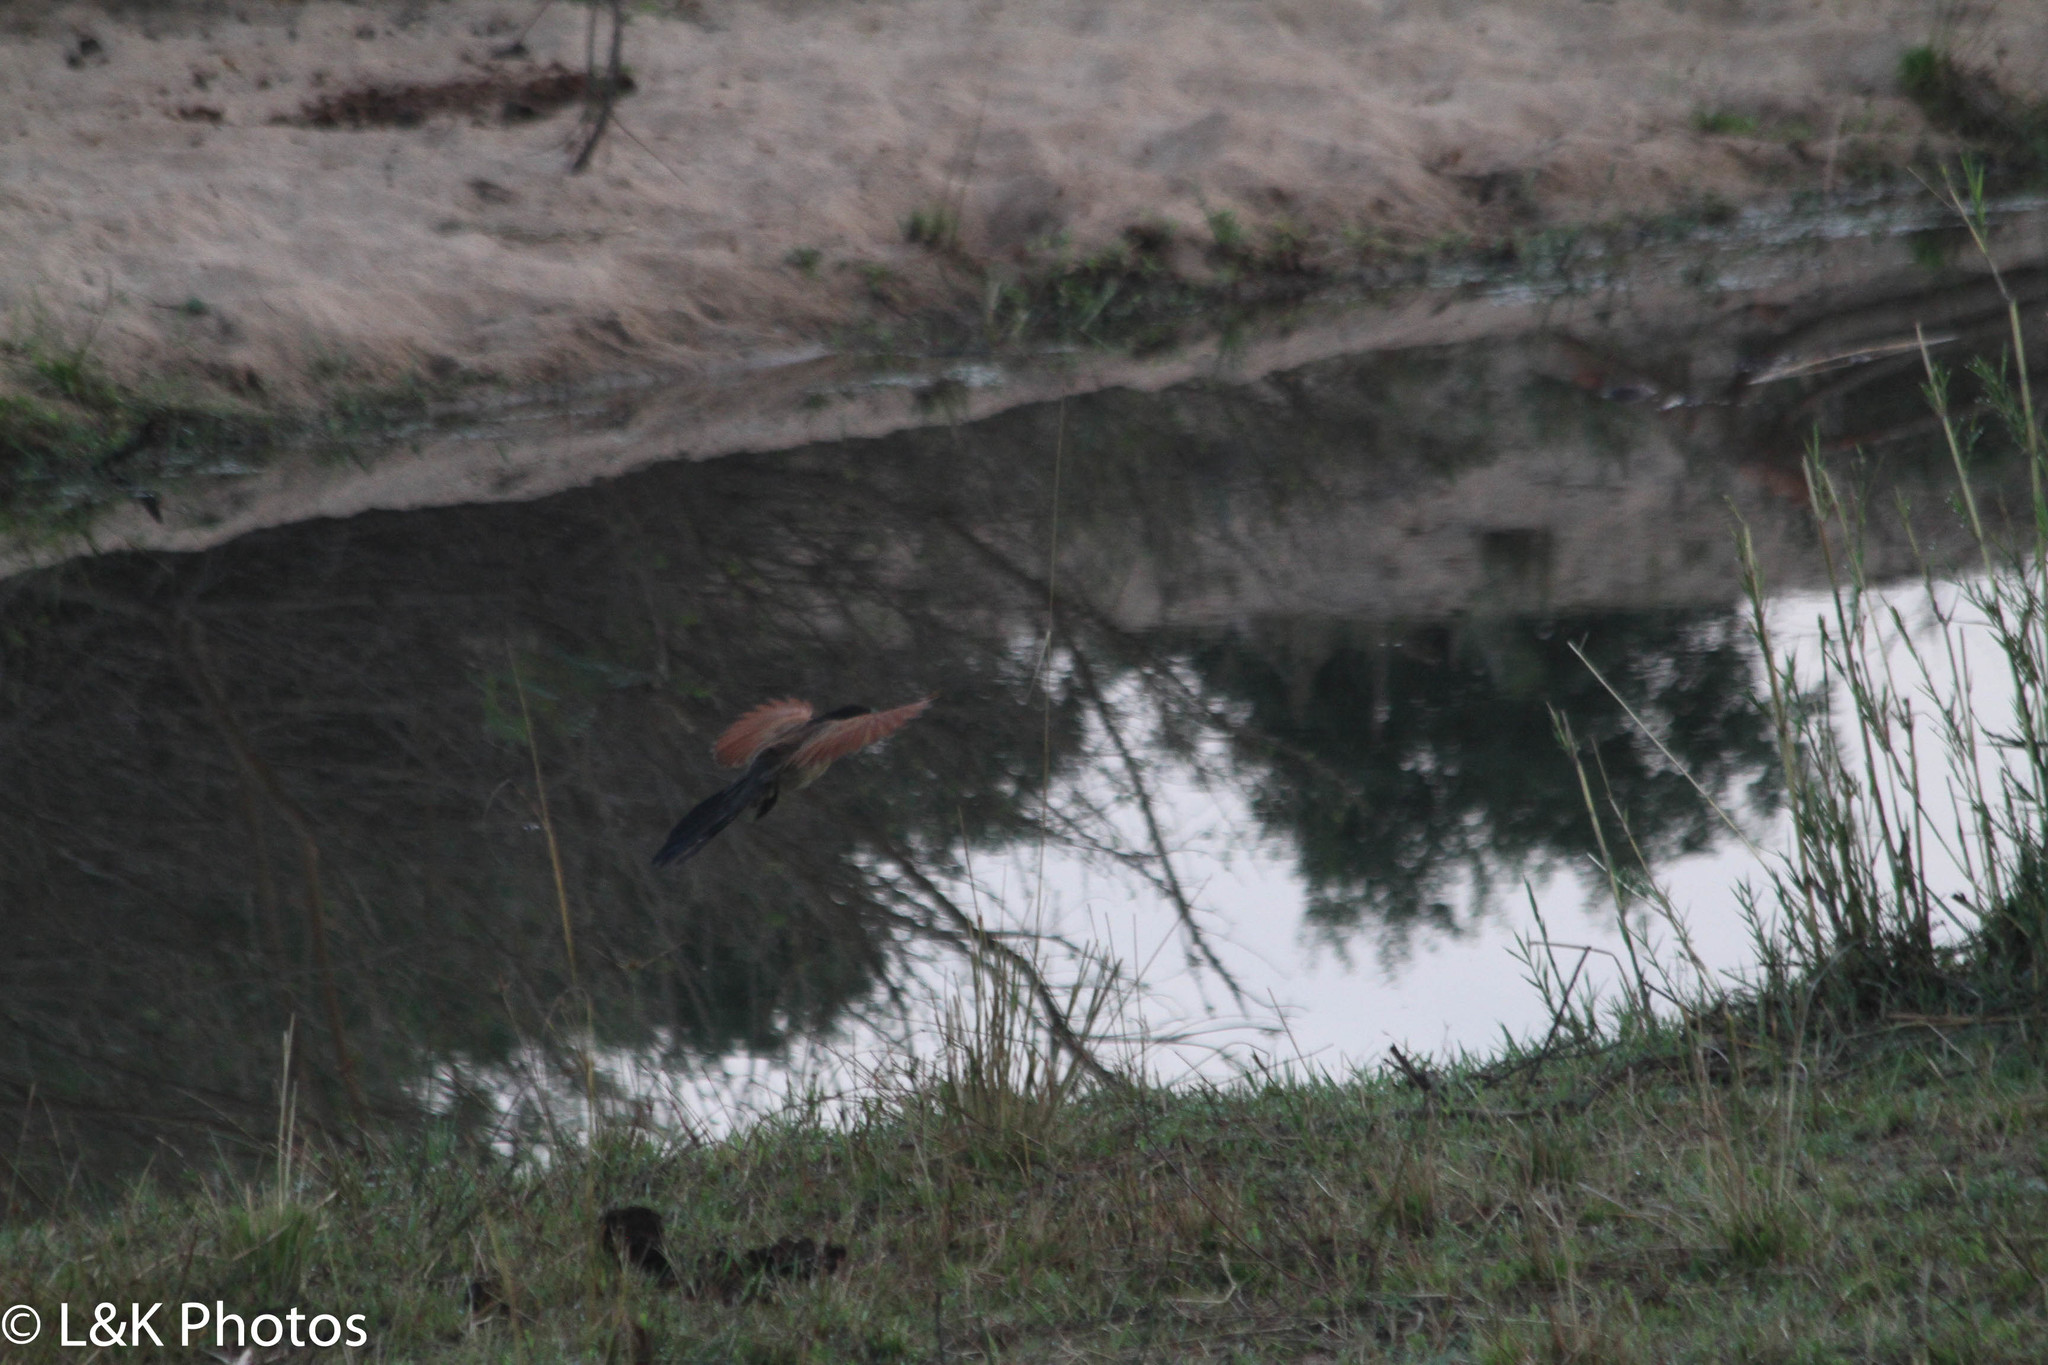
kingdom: Animalia
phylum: Chordata
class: Aves
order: Cuculiformes
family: Cuculidae
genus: Centropus
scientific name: Centropus superciliosus
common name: White-browed coucal
